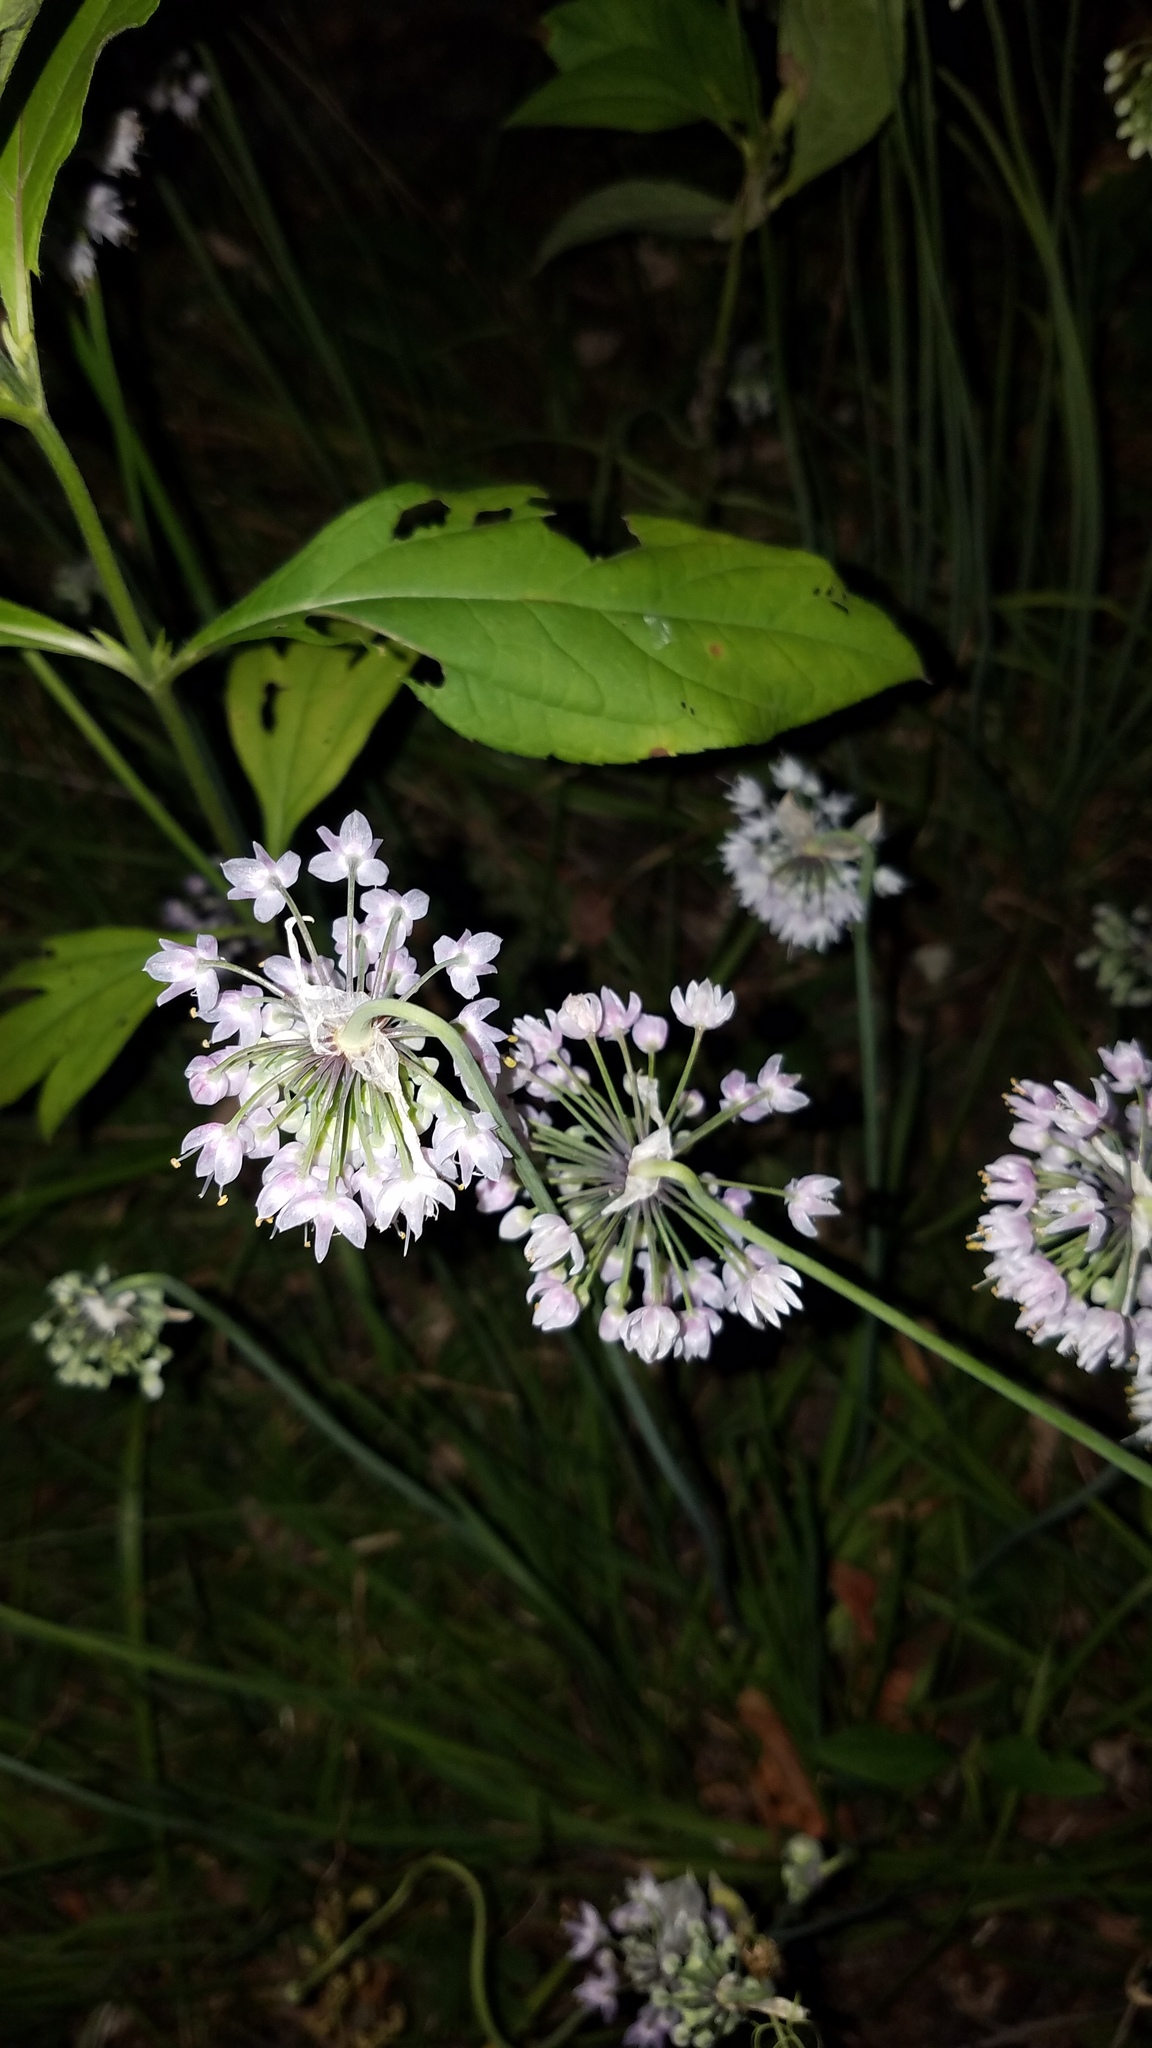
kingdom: Plantae
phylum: Tracheophyta
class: Liliopsida
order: Asparagales
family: Amaryllidaceae
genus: Allium
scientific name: Allium cernuum
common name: Nodding onion
